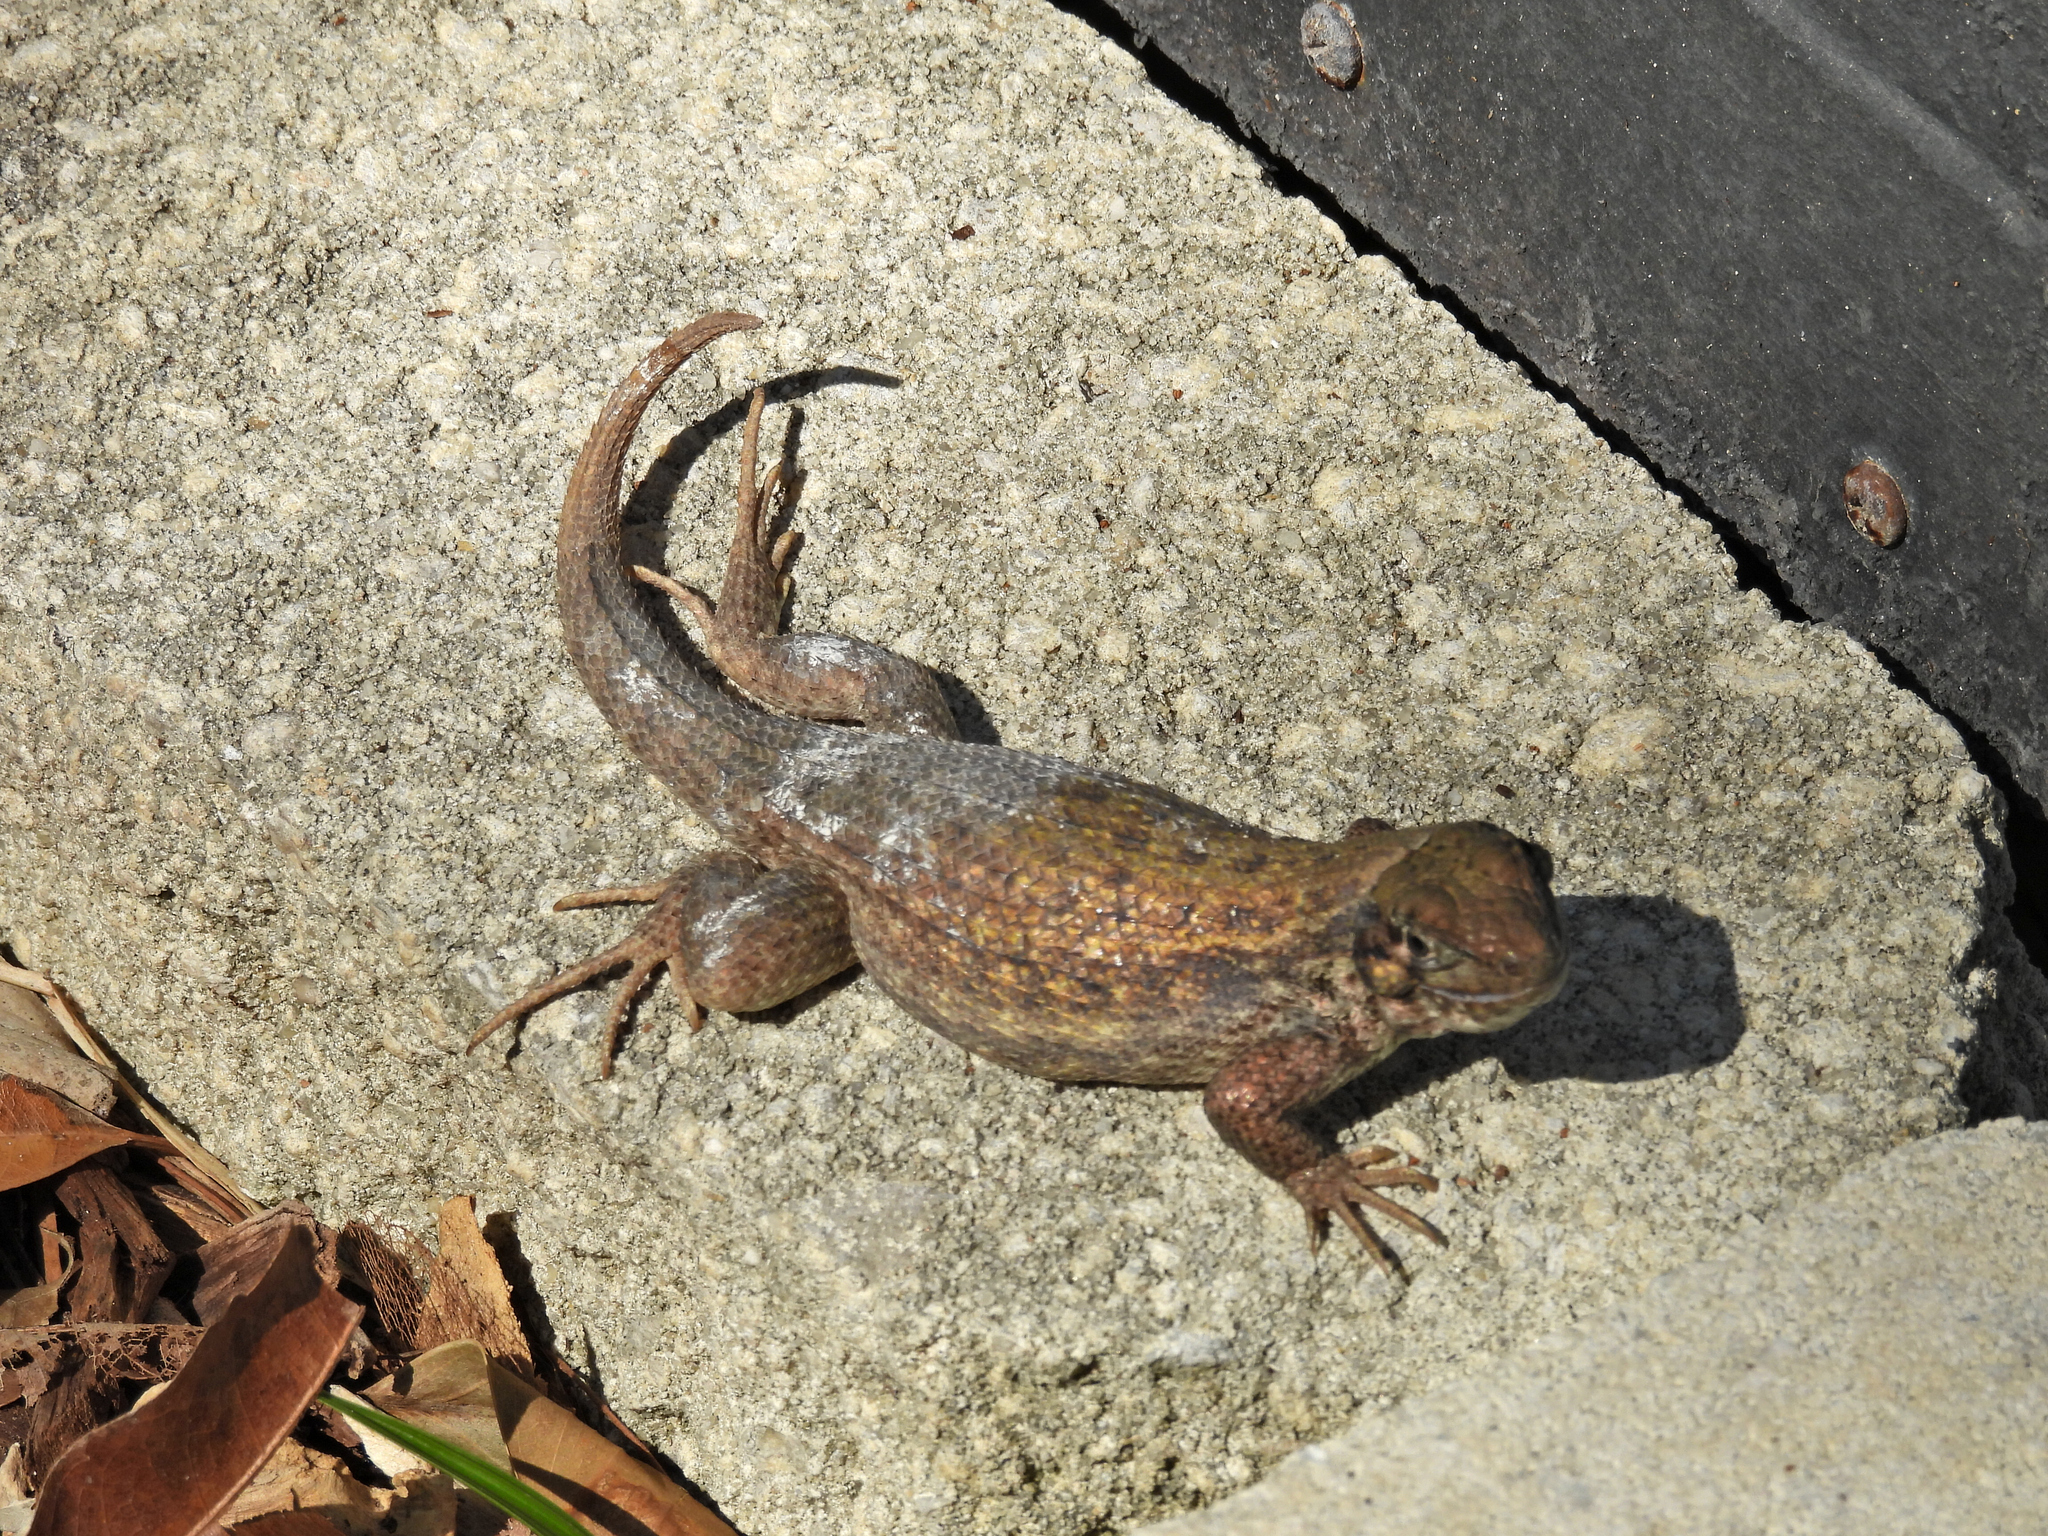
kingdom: Animalia
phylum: Chordata
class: Squamata
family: Leiocephalidae
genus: Leiocephalus
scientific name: Leiocephalus carinatus
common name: Northern curly-tailed lizard
